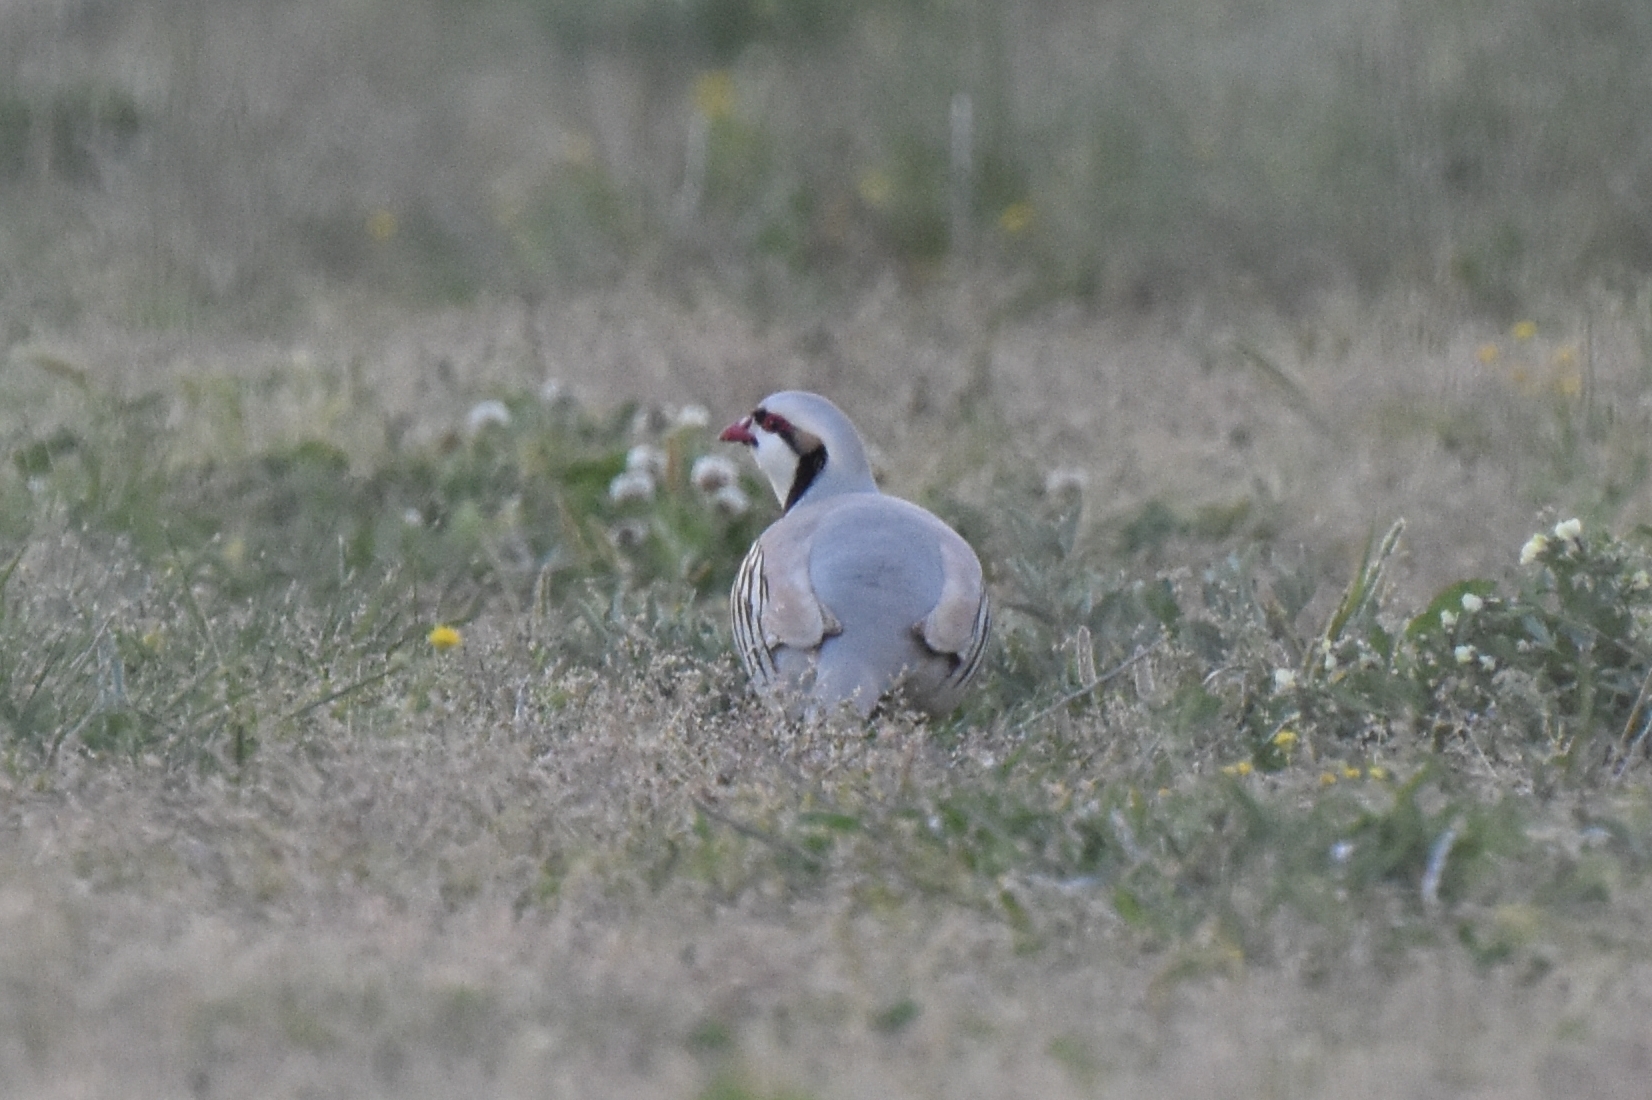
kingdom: Animalia
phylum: Chordata
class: Aves
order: Galliformes
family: Phasianidae
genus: Alectoris
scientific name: Alectoris chukar
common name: Chukar
